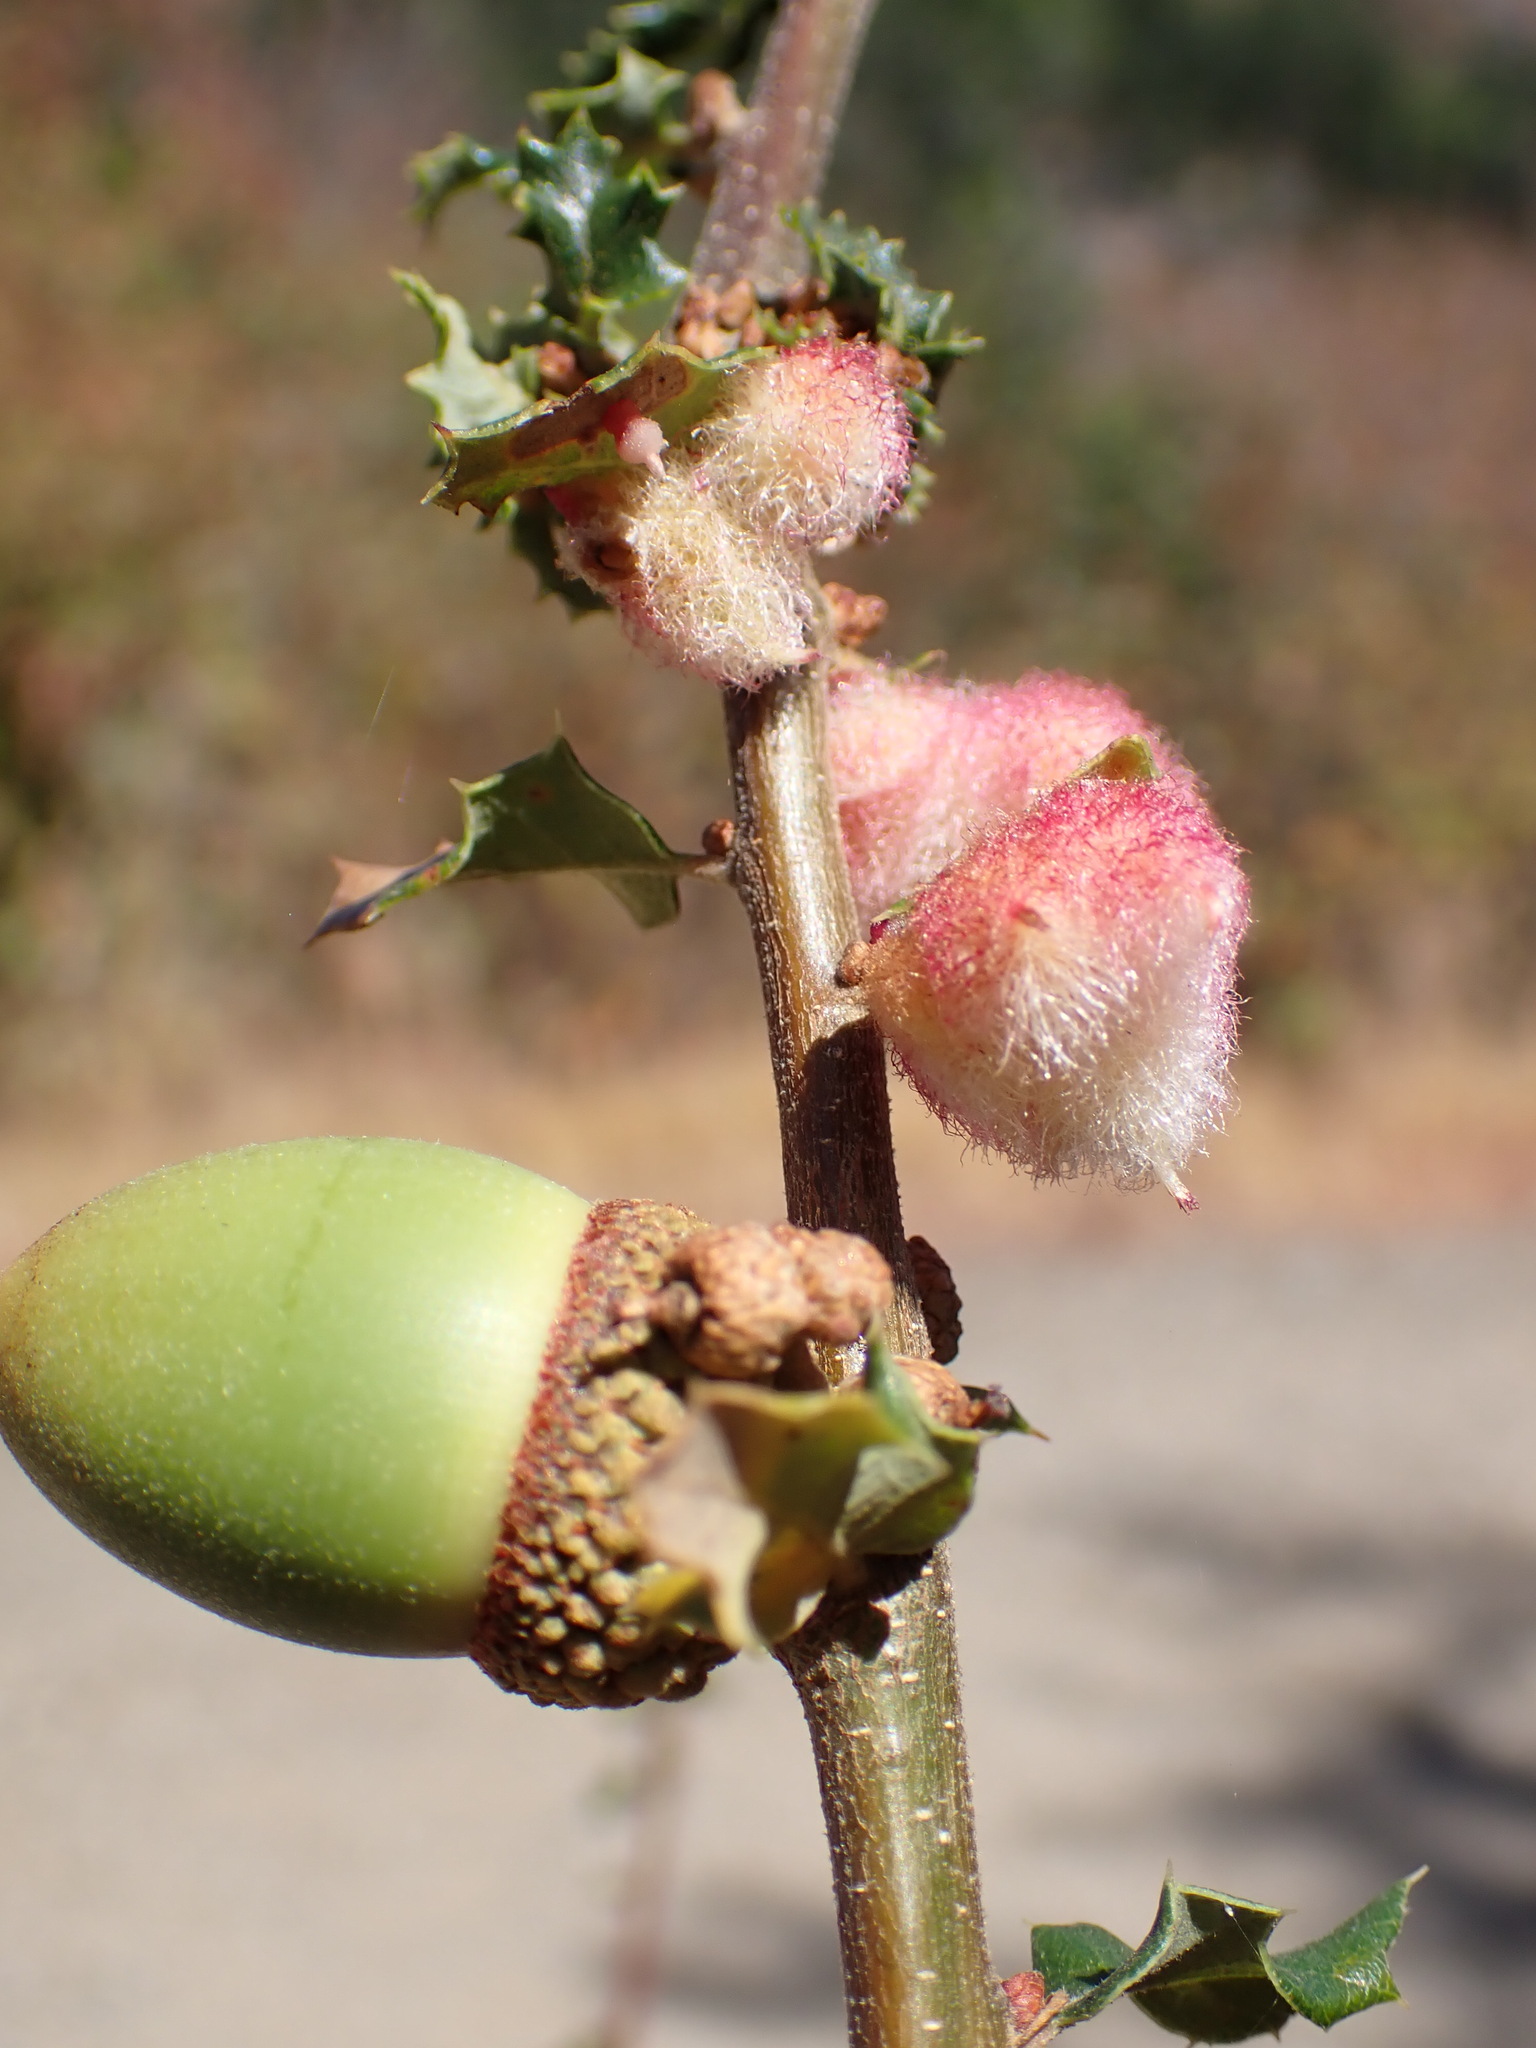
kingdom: Animalia
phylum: Arthropoda
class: Insecta
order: Hymenoptera
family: Cynipidae
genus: Andricus
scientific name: Andricus
